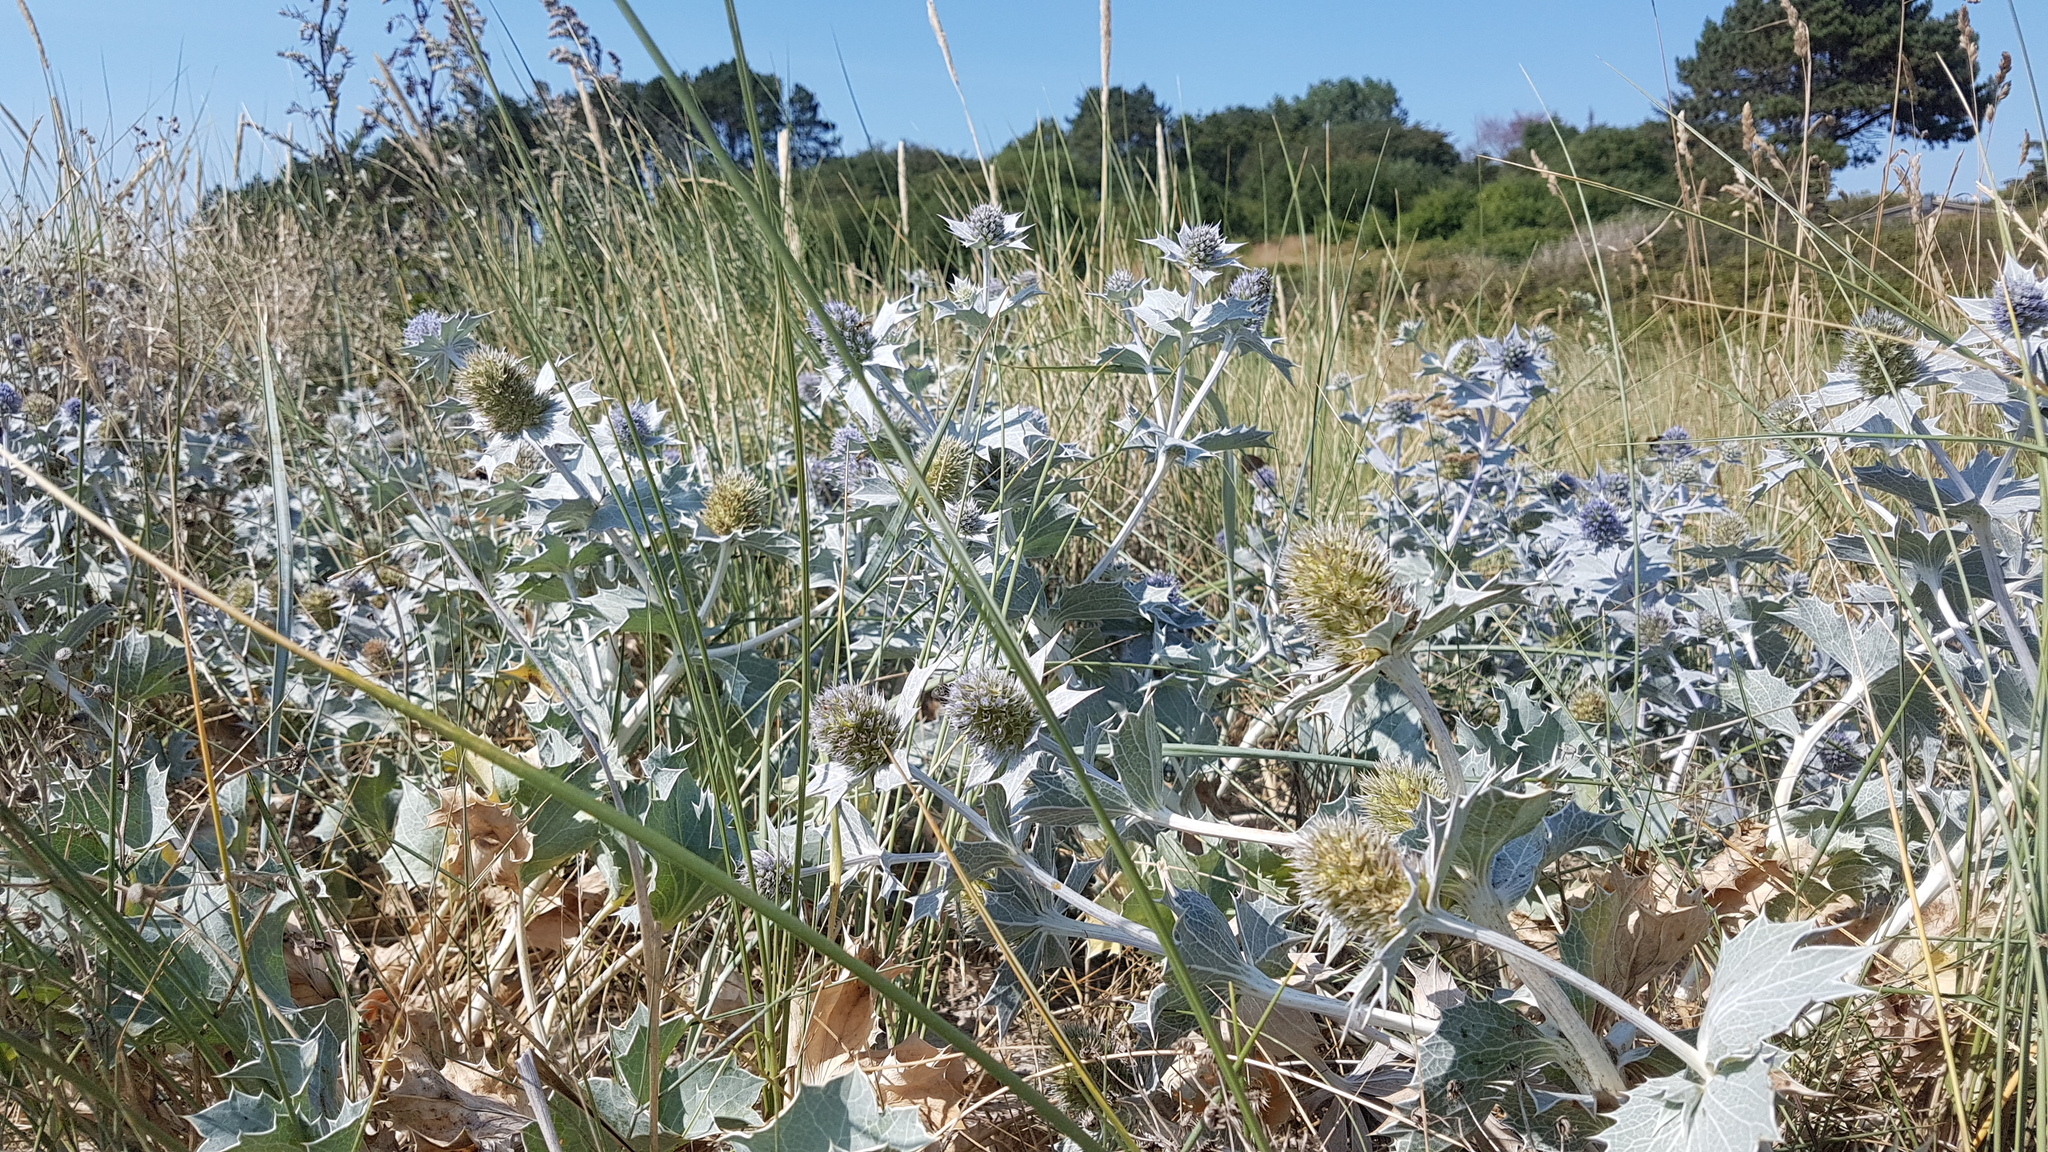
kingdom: Plantae
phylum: Tracheophyta
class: Magnoliopsida
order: Apiales
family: Apiaceae
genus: Eryngium
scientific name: Eryngium maritimum
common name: Sea-holly
